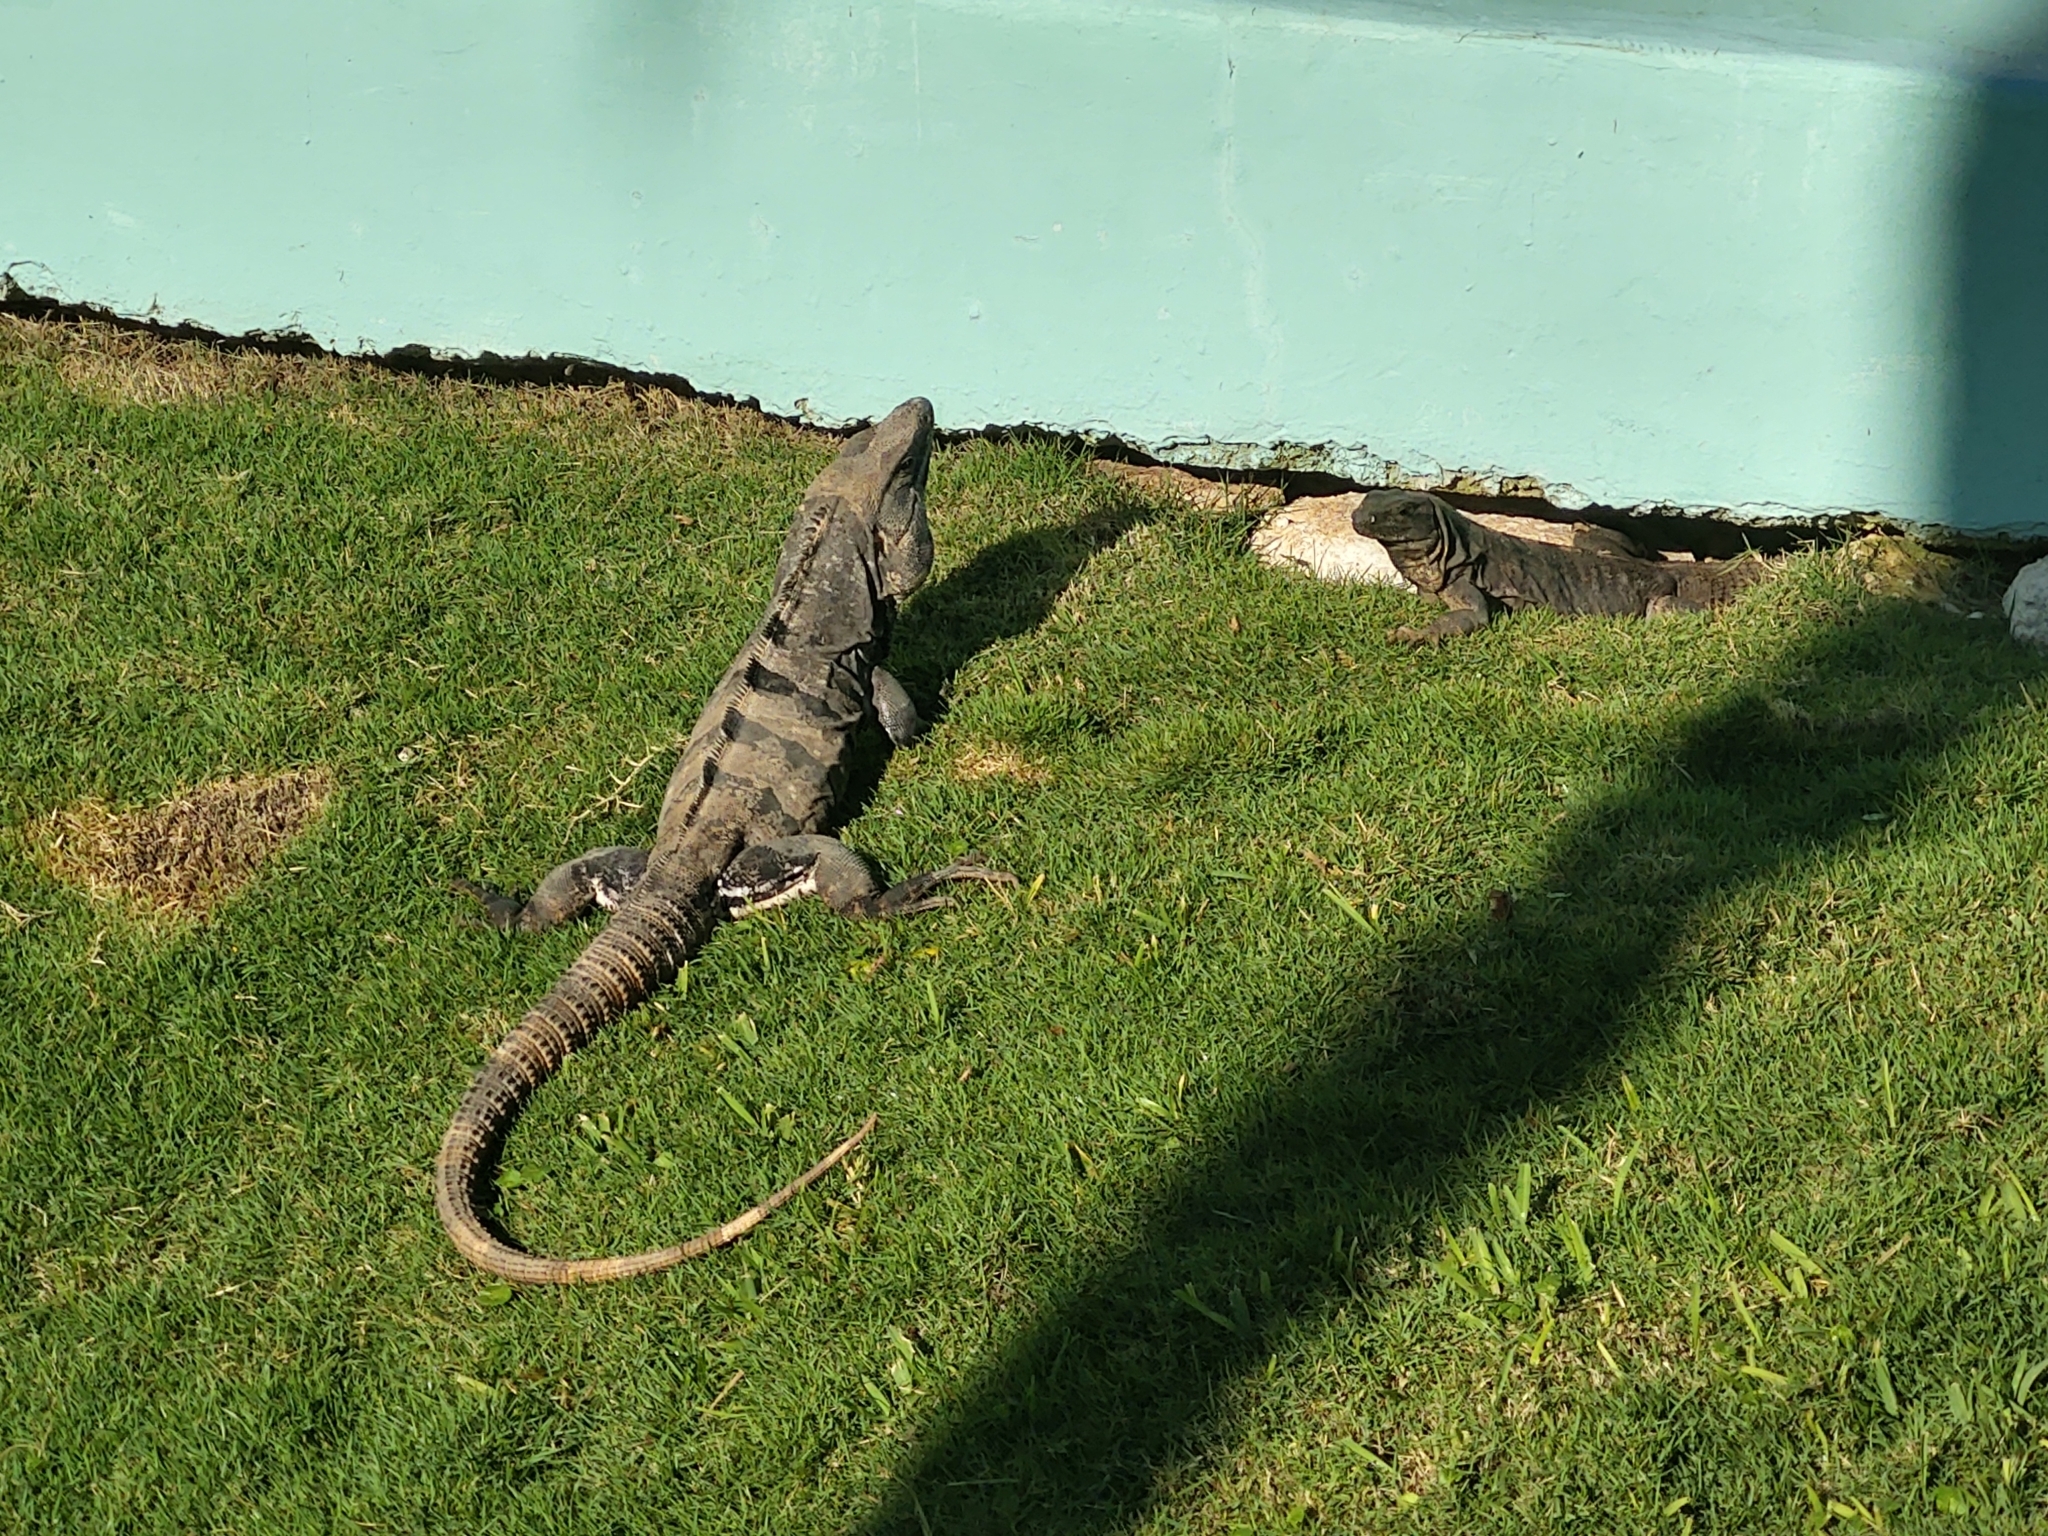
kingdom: Animalia
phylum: Chordata
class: Squamata
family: Iguanidae
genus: Ctenosaura
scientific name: Ctenosaura similis
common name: Black spiny-tailed iguana
